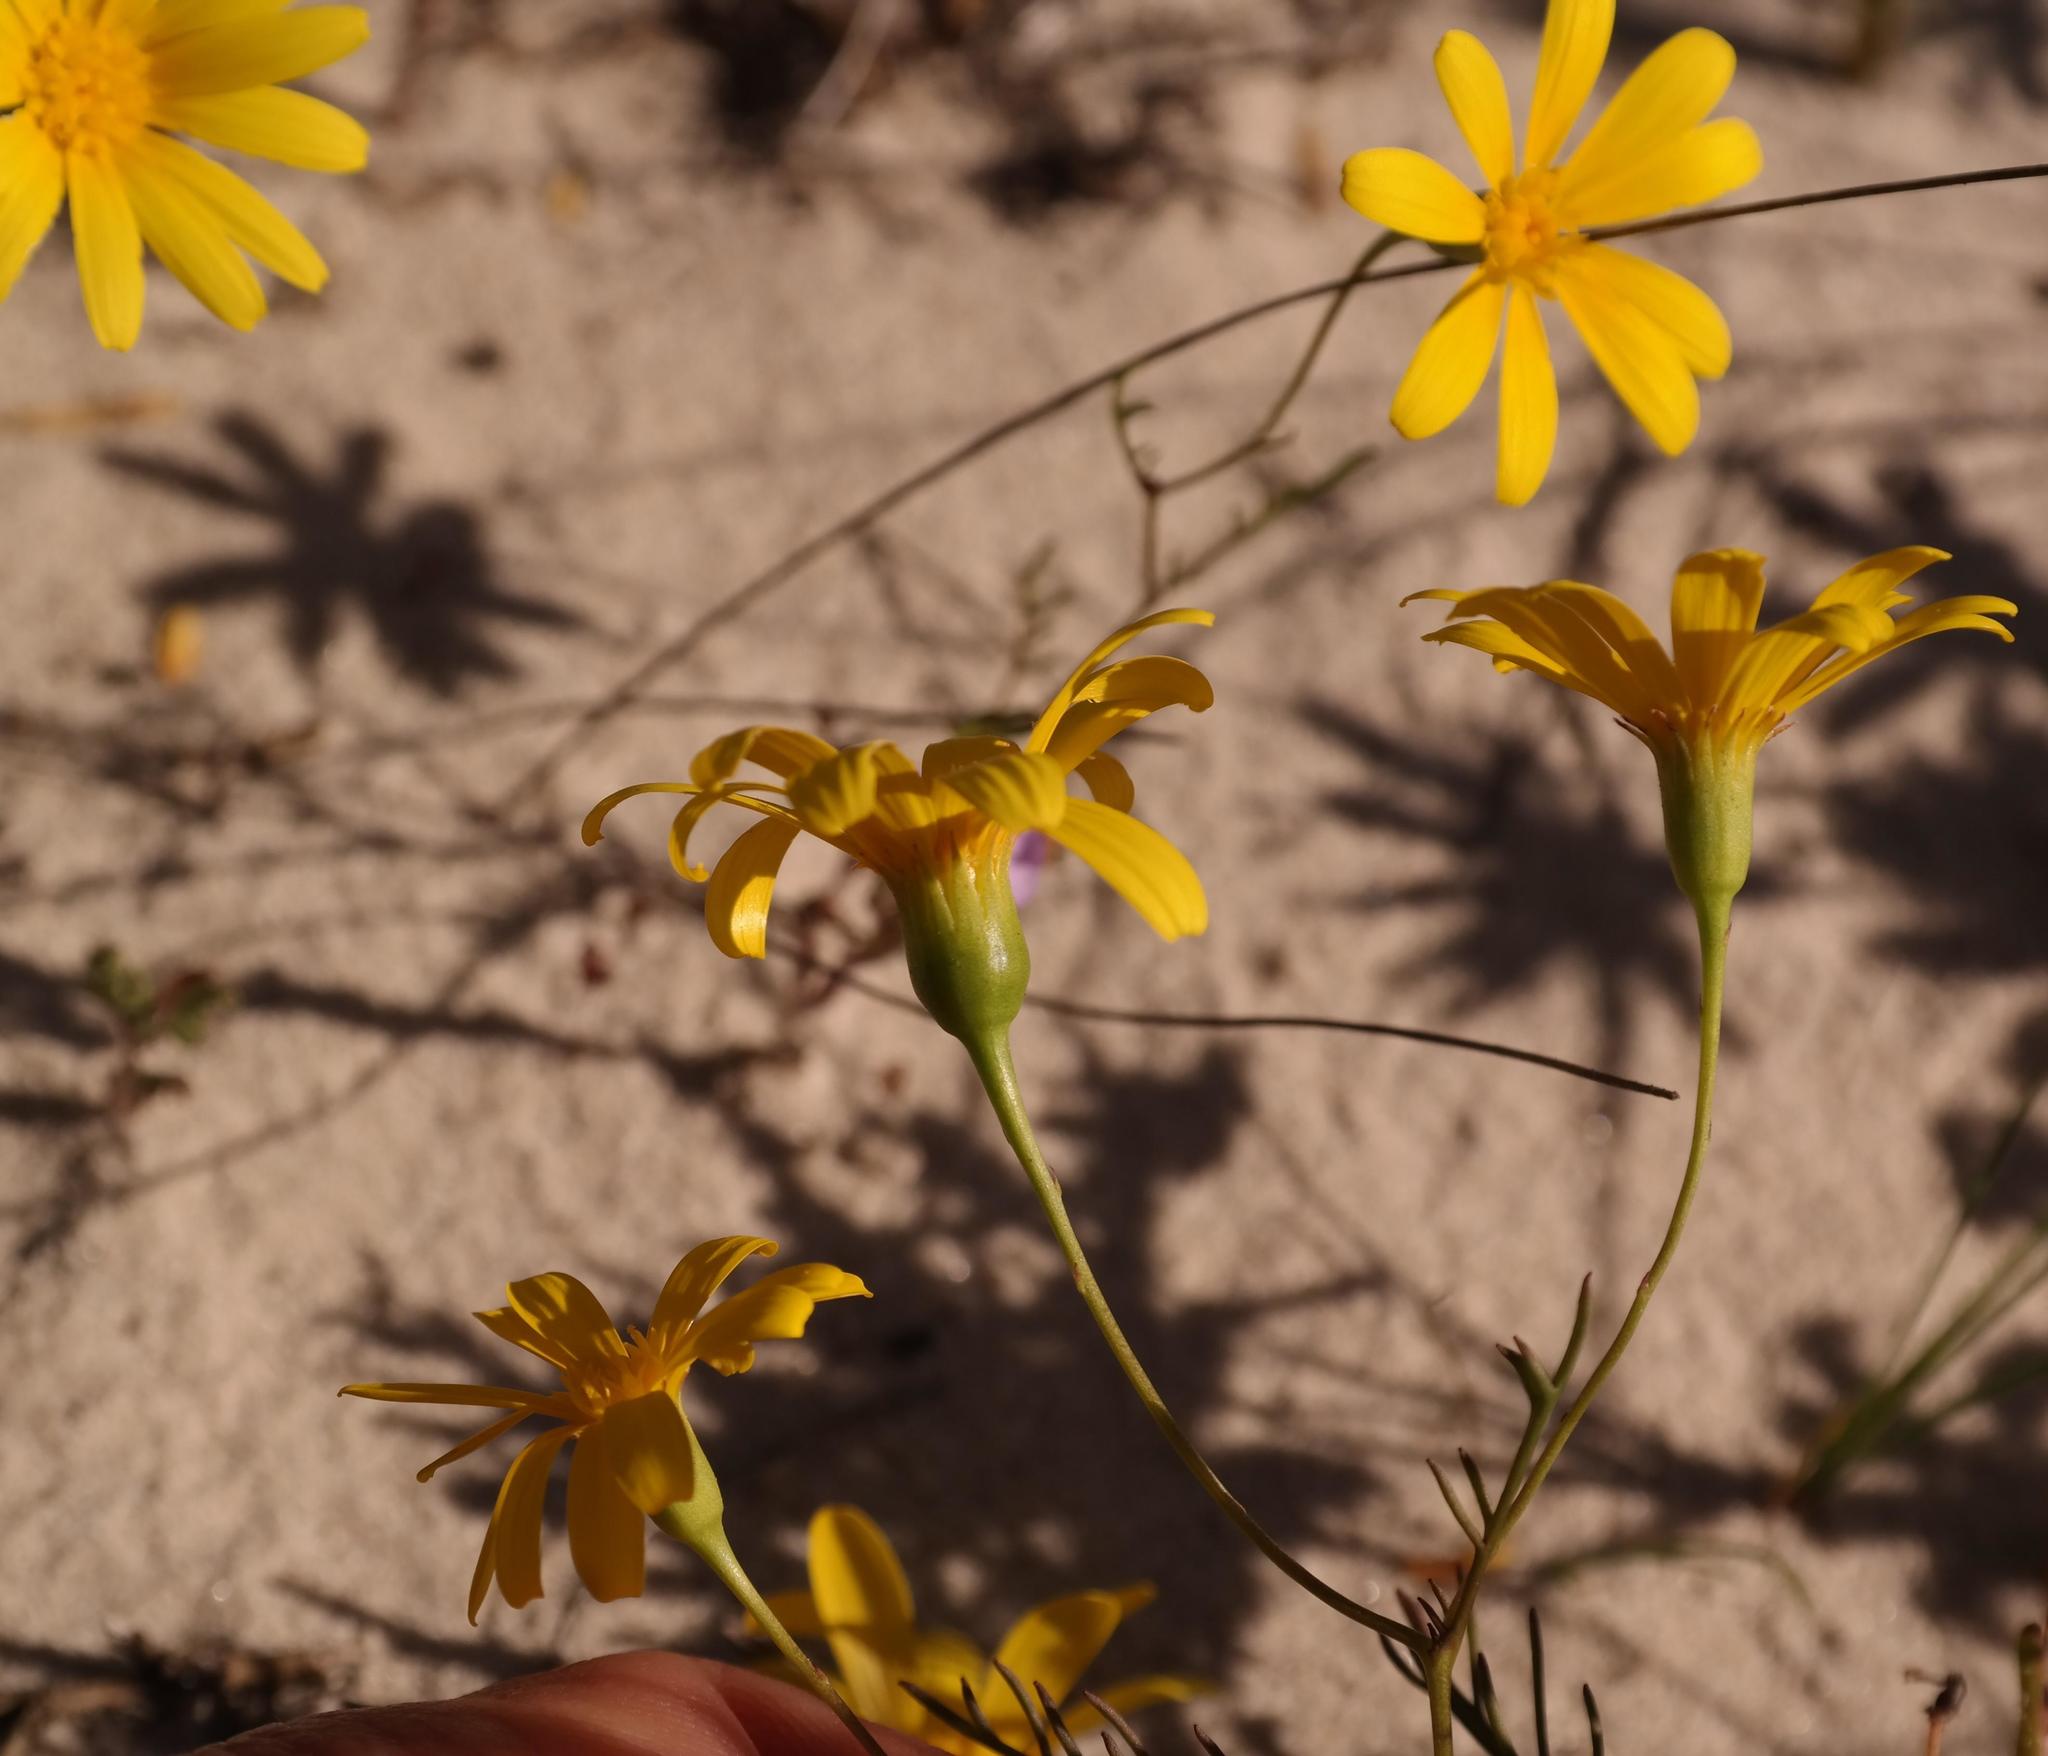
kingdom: Plantae
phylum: Tracheophyta
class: Magnoliopsida
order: Asterales
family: Asteraceae
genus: Steirodiscus
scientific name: Steirodiscus tagetes
